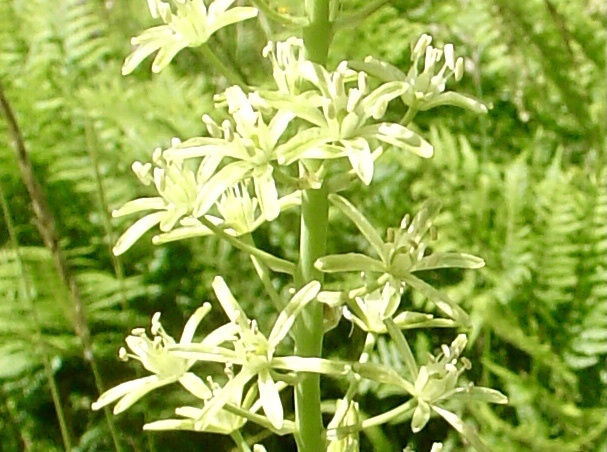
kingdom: Plantae
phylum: Tracheophyta
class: Liliopsida
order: Asparagales
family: Asparagaceae
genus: Ornithogalum
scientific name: Ornithogalum pyrenaicum
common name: Spiked star-of-bethlehem
